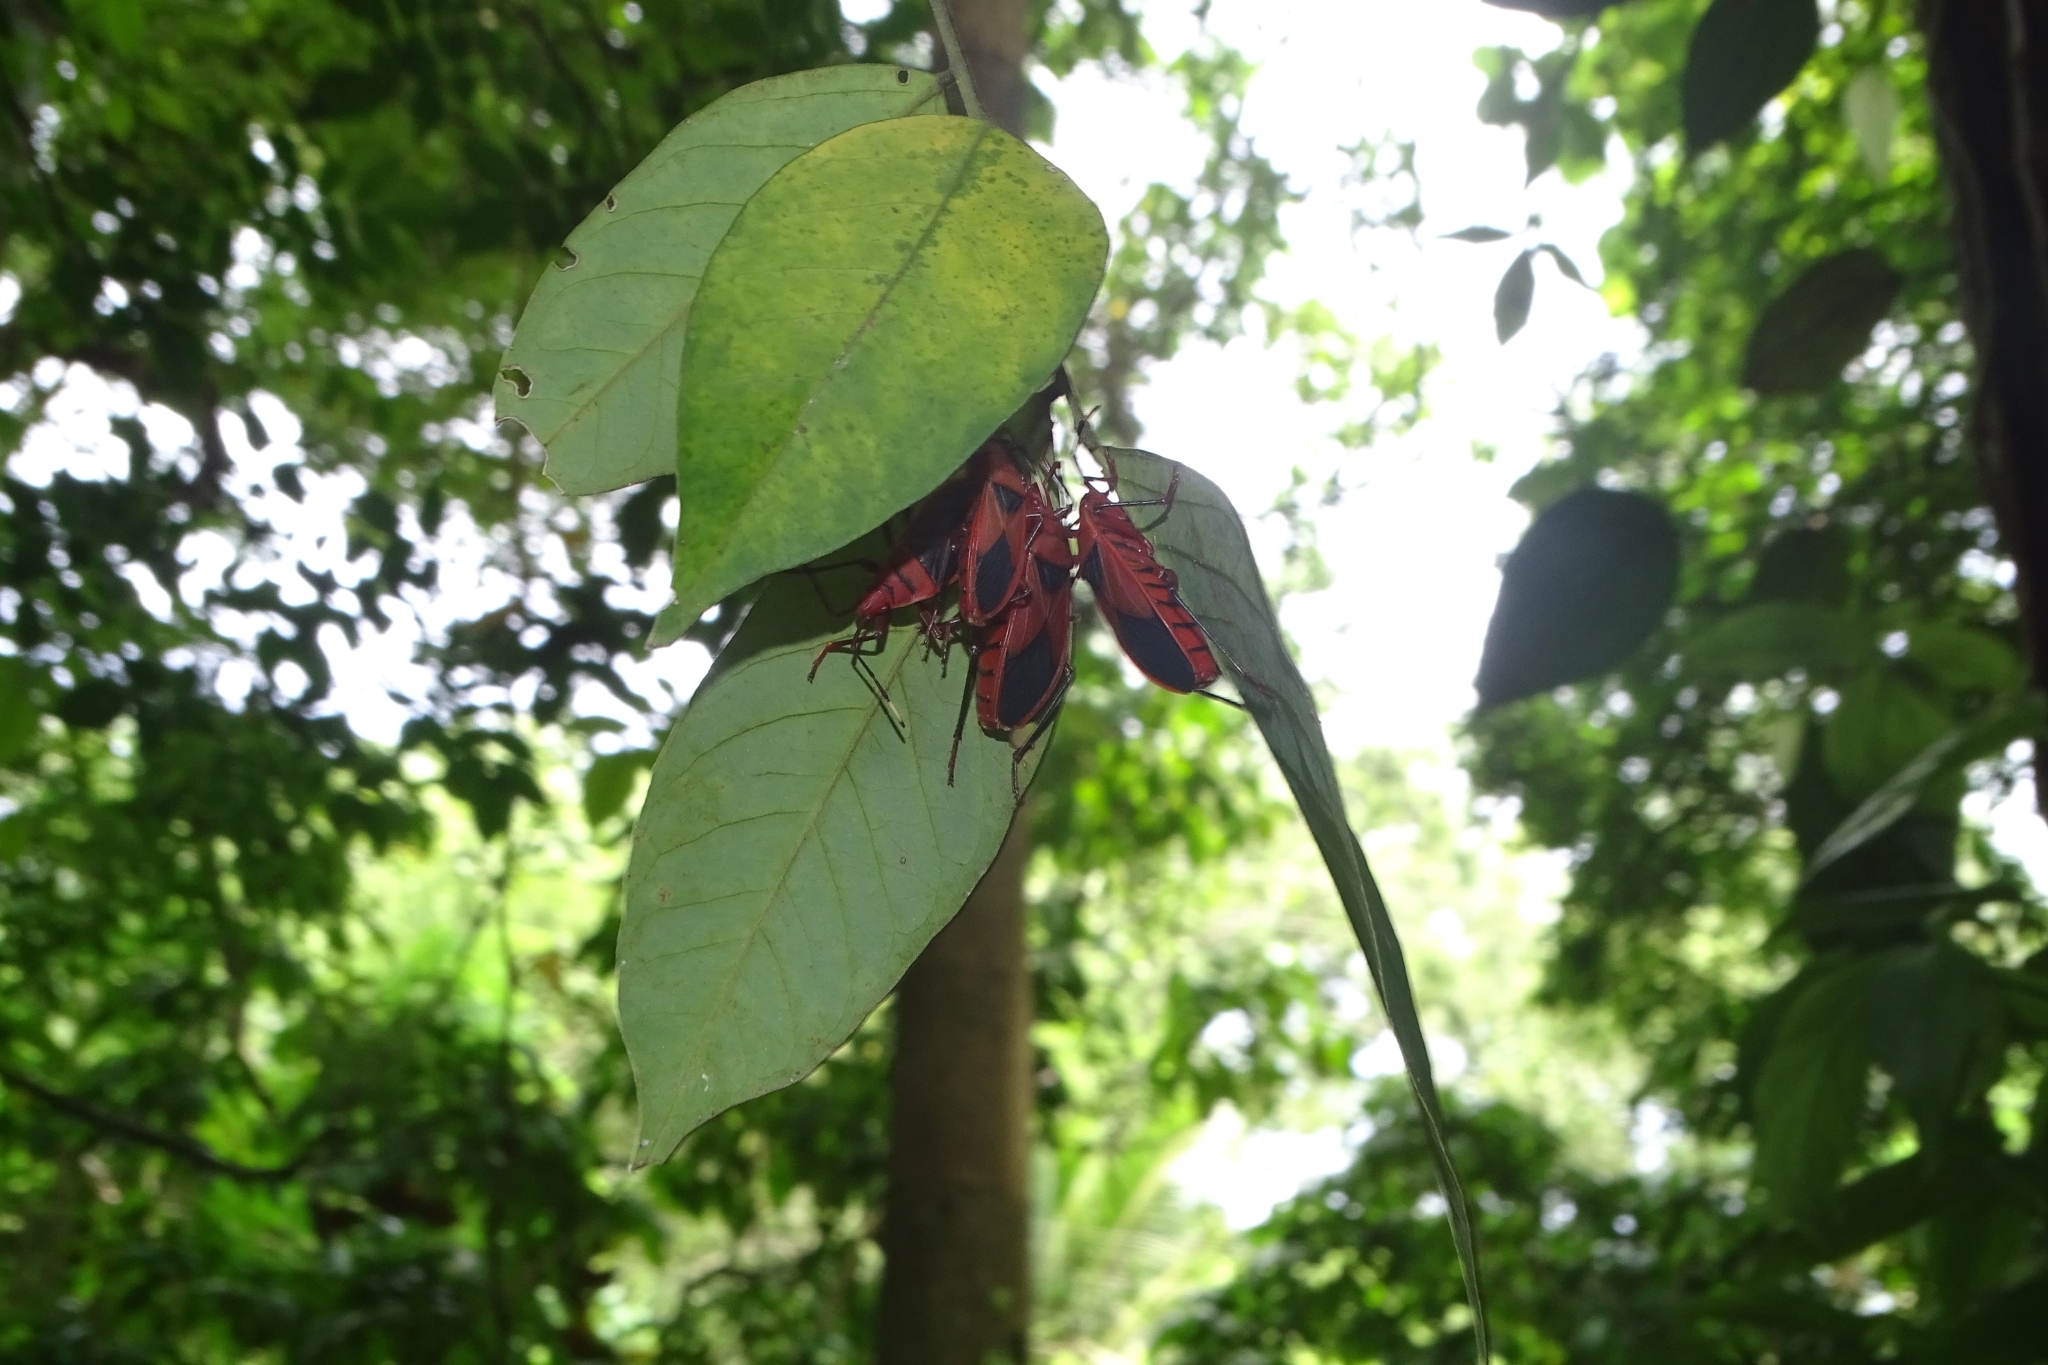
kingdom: Animalia
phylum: Arthropoda
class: Insecta
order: Hemiptera
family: Pyrrhocoridae
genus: Probergrothius
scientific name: Probergrothius
